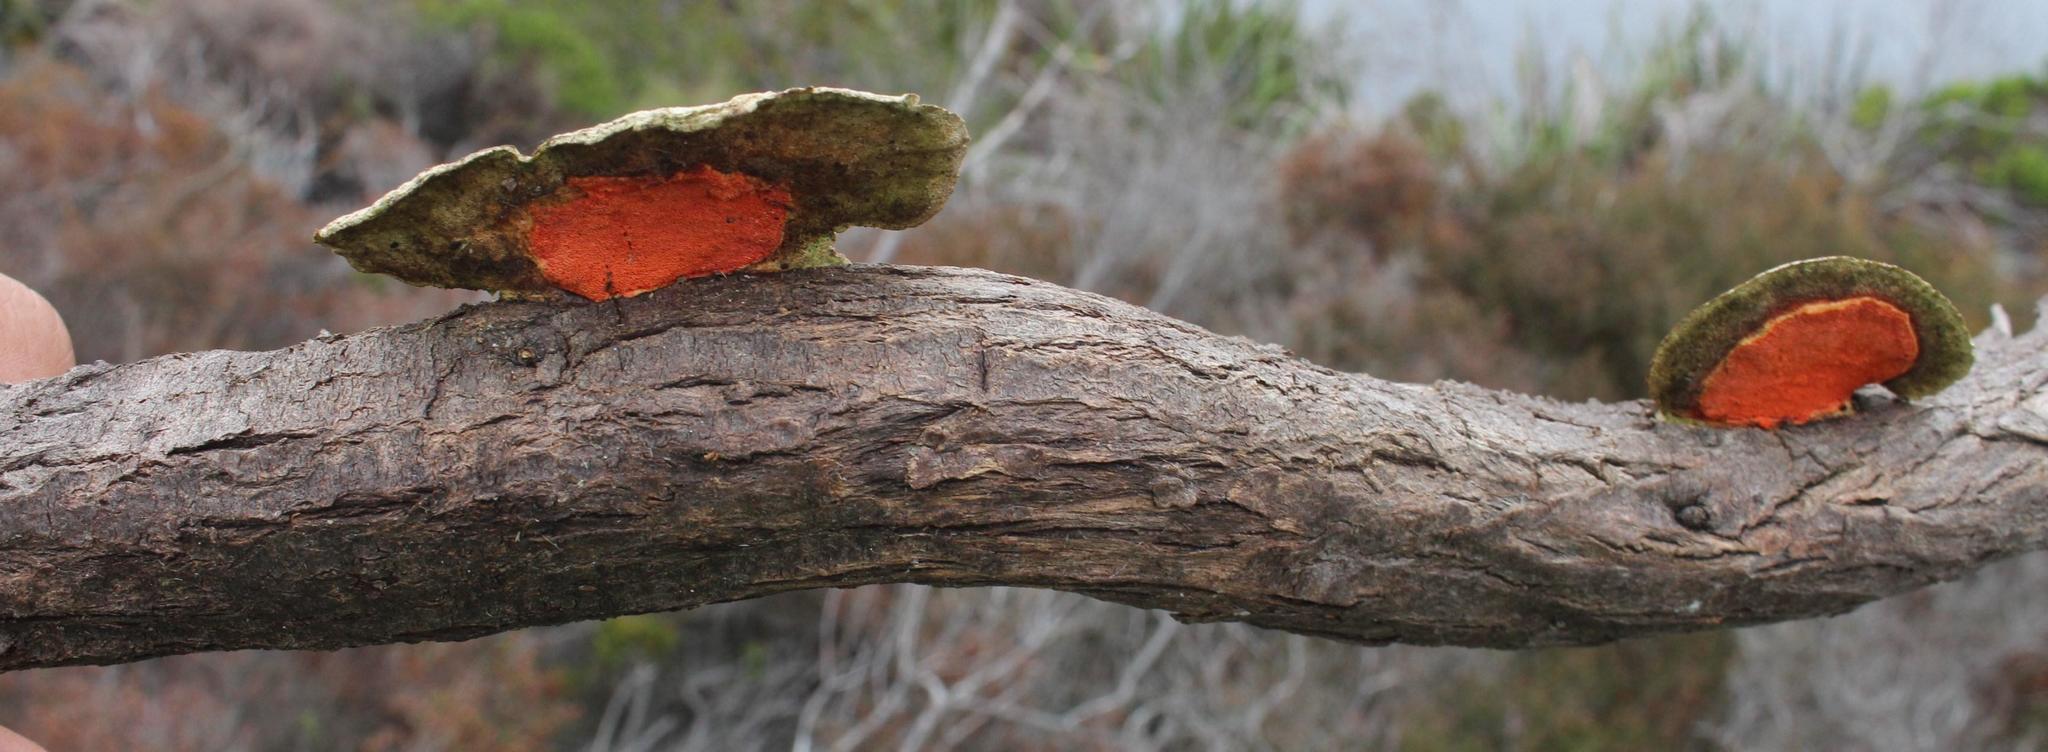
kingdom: Fungi
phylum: Basidiomycota
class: Agaricomycetes
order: Polyporales
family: Polyporaceae
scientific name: Polyporaceae
